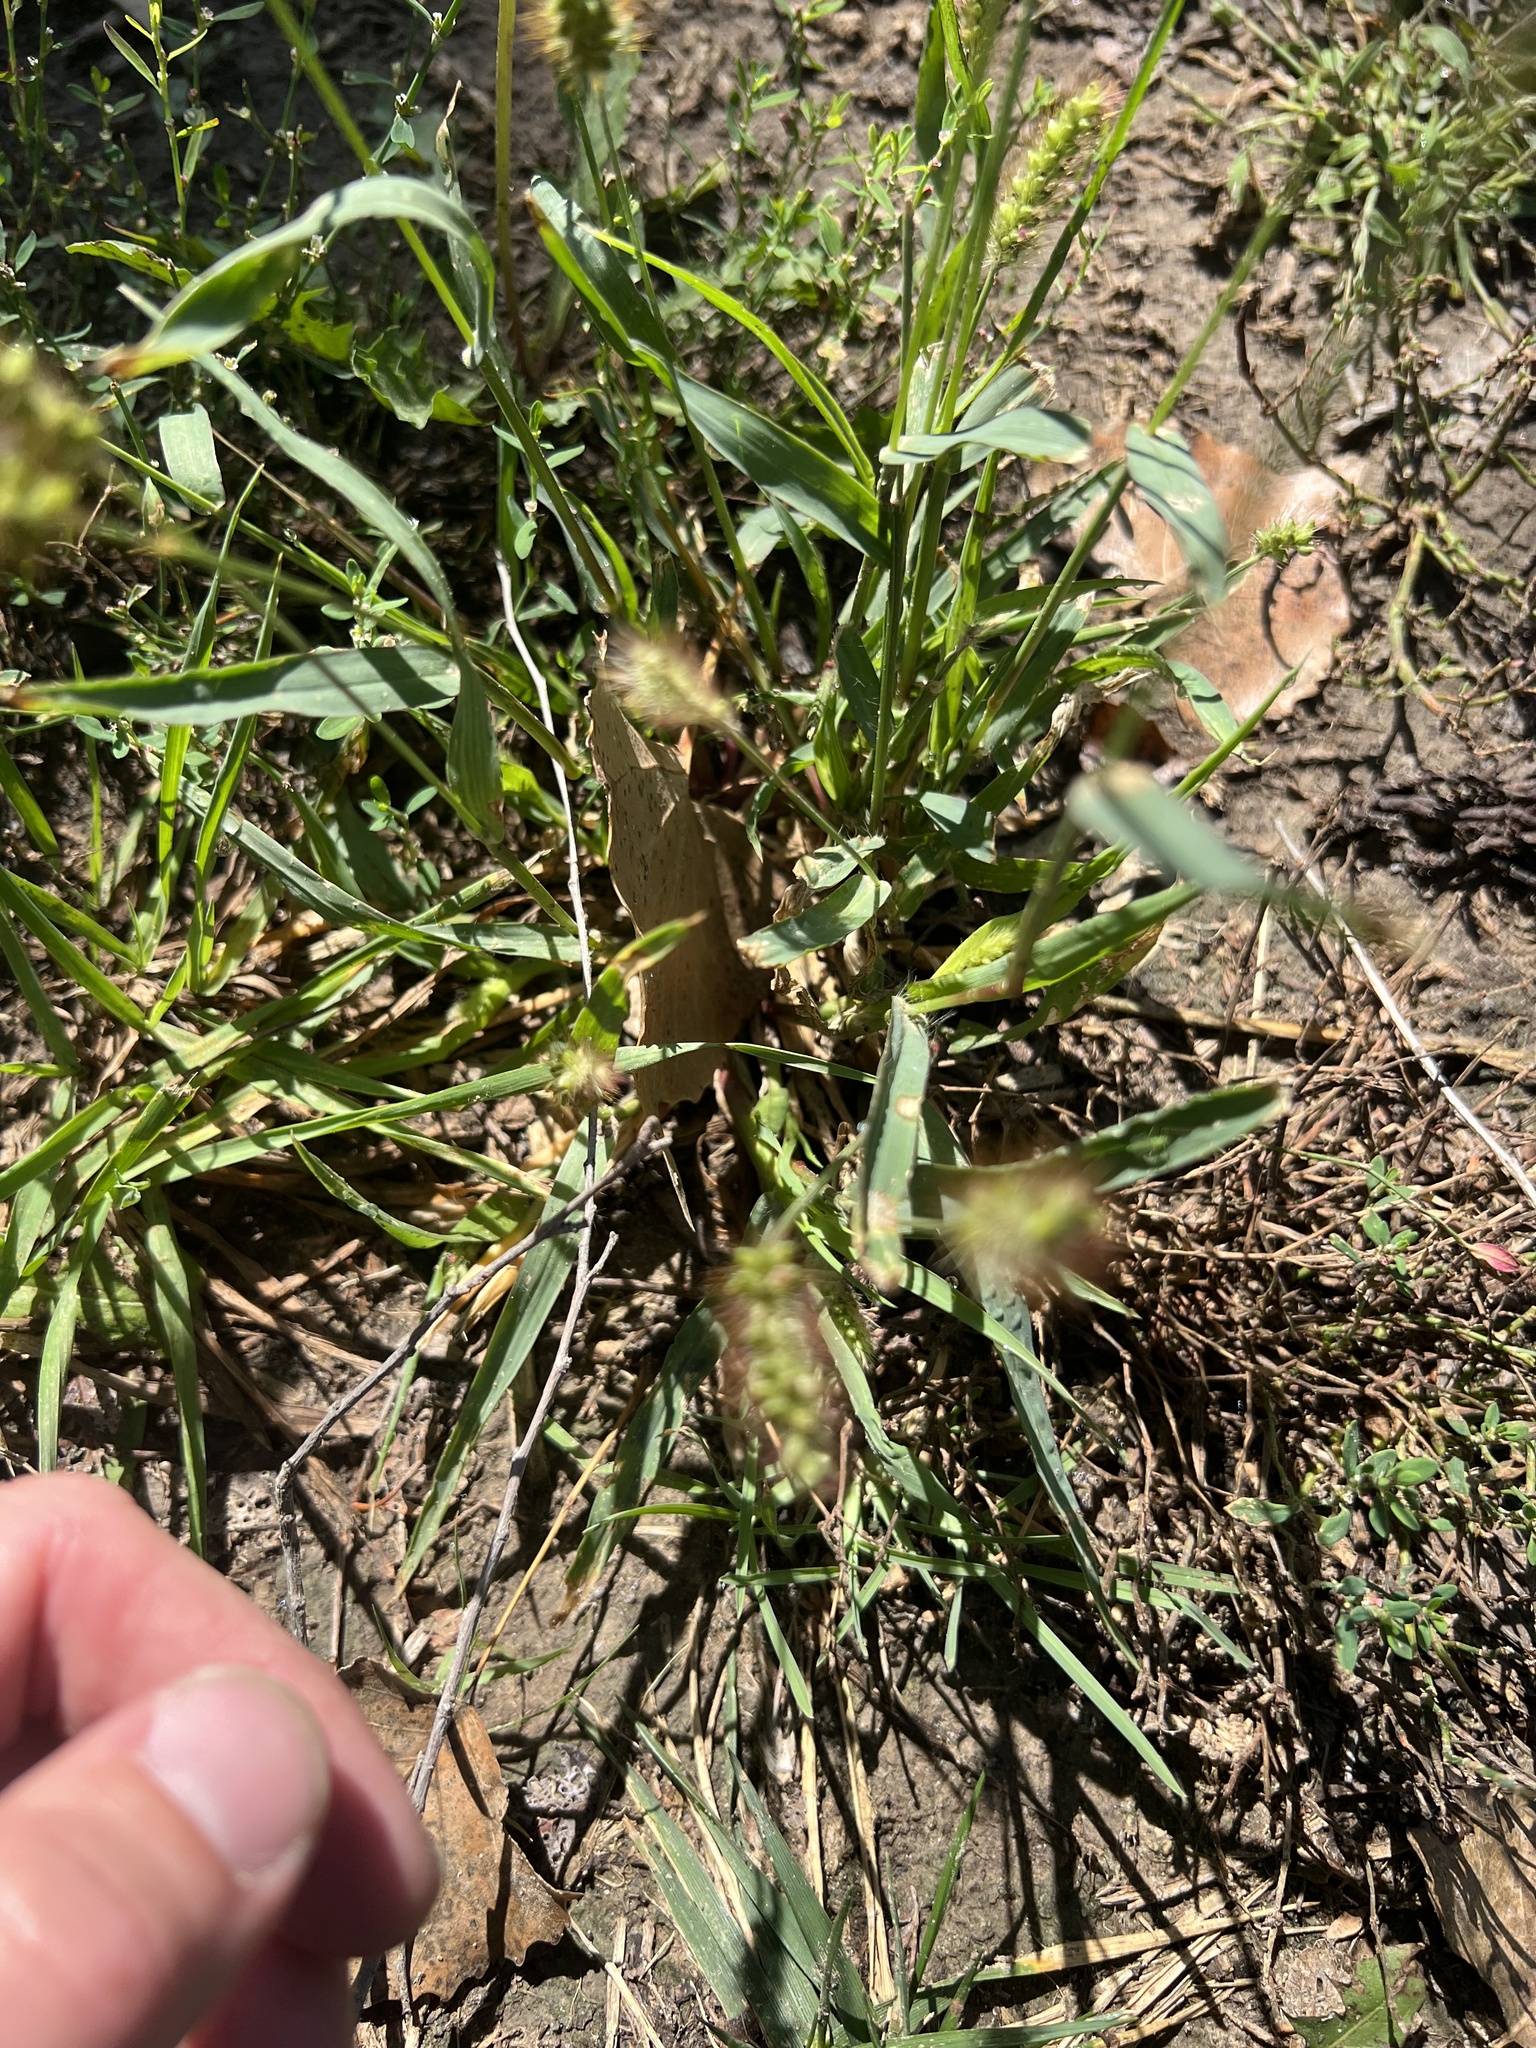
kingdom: Plantae
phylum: Tracheophyta
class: Liliopsida
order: Poales
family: Poaceae
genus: Setaria
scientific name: Setaria pumila
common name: Yellow bristle-grass
